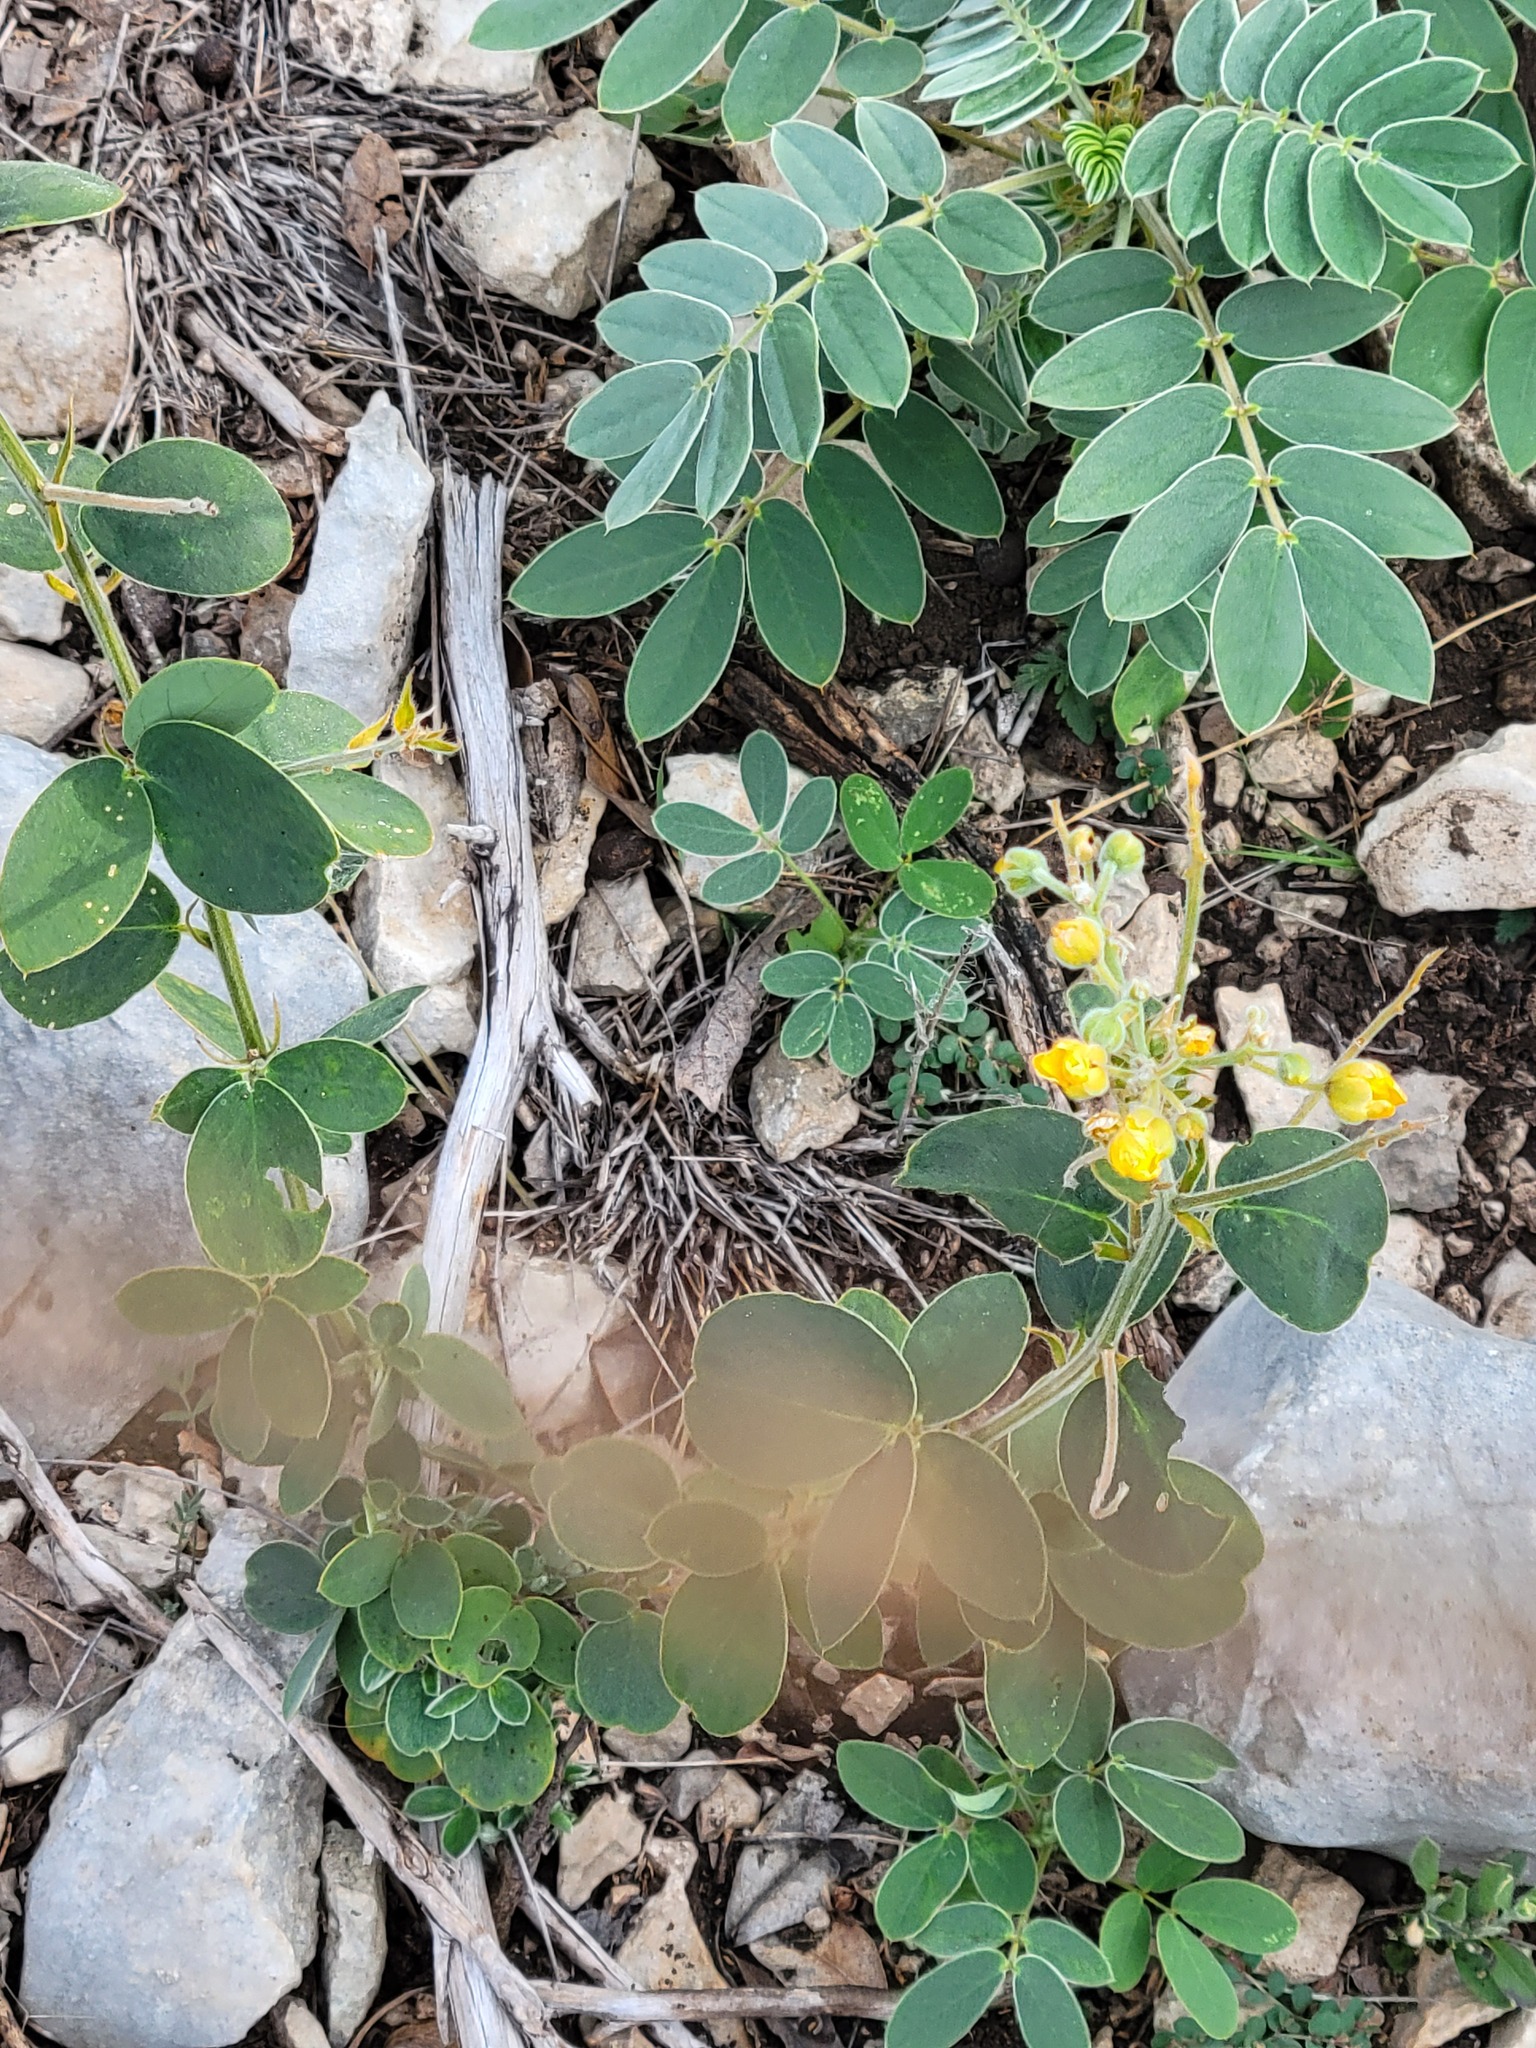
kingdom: Plantae
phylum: Tracheophyta
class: Magnoliopsida
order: Fabales
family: Fabaceae
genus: Senna
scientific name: Senna lindheimeriana
